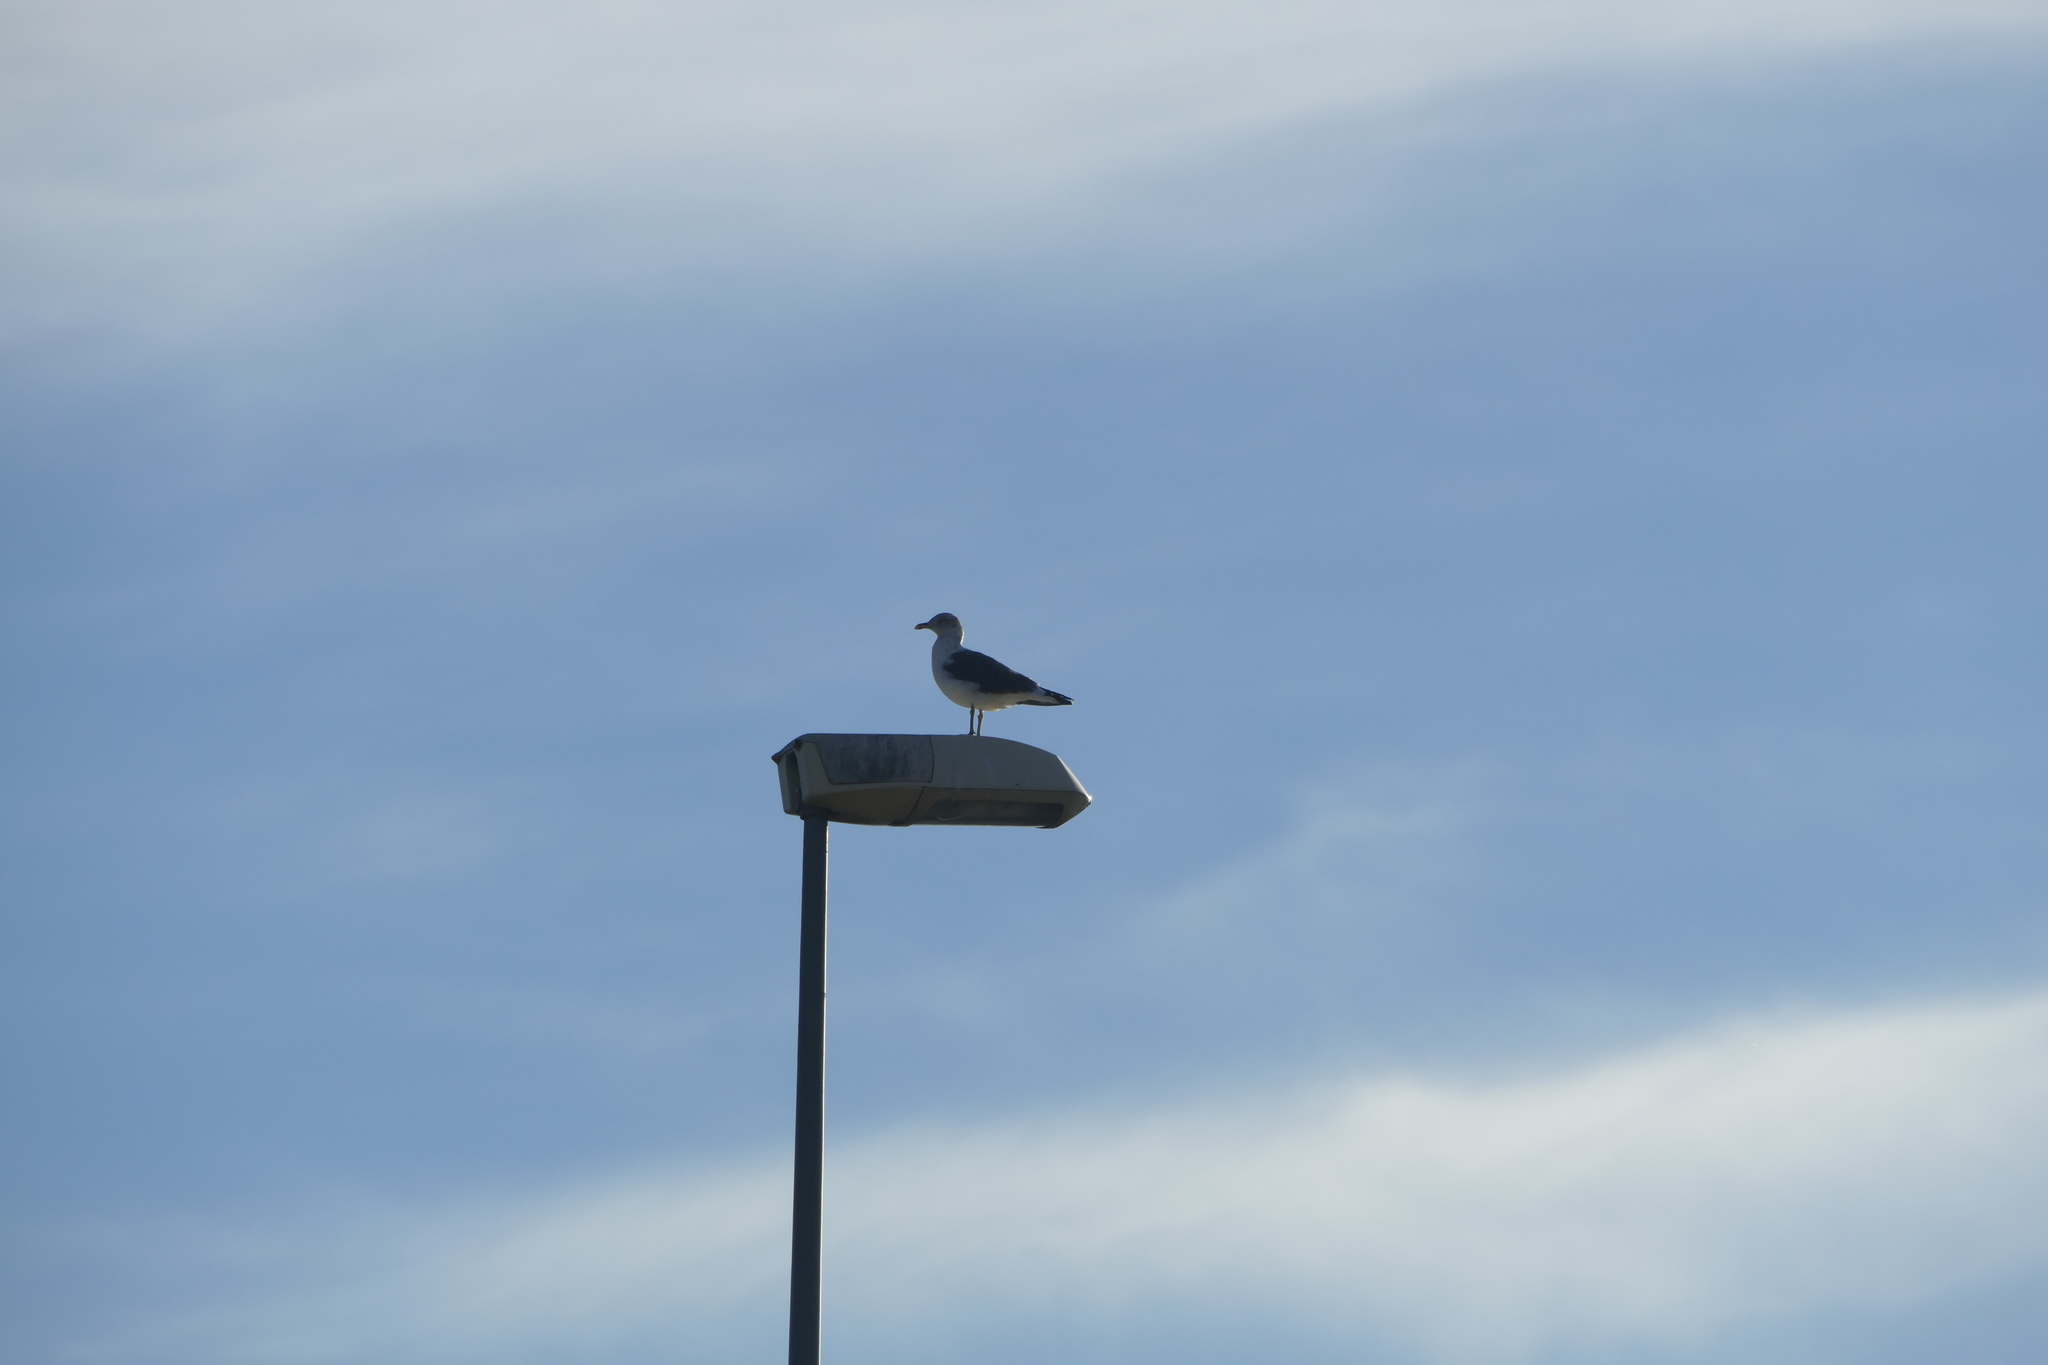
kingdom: Animalia
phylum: Chordata
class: Aves
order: Charadriiformes
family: Laridae
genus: Larus
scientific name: Larus fuscus
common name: Lesser black-backed gull
